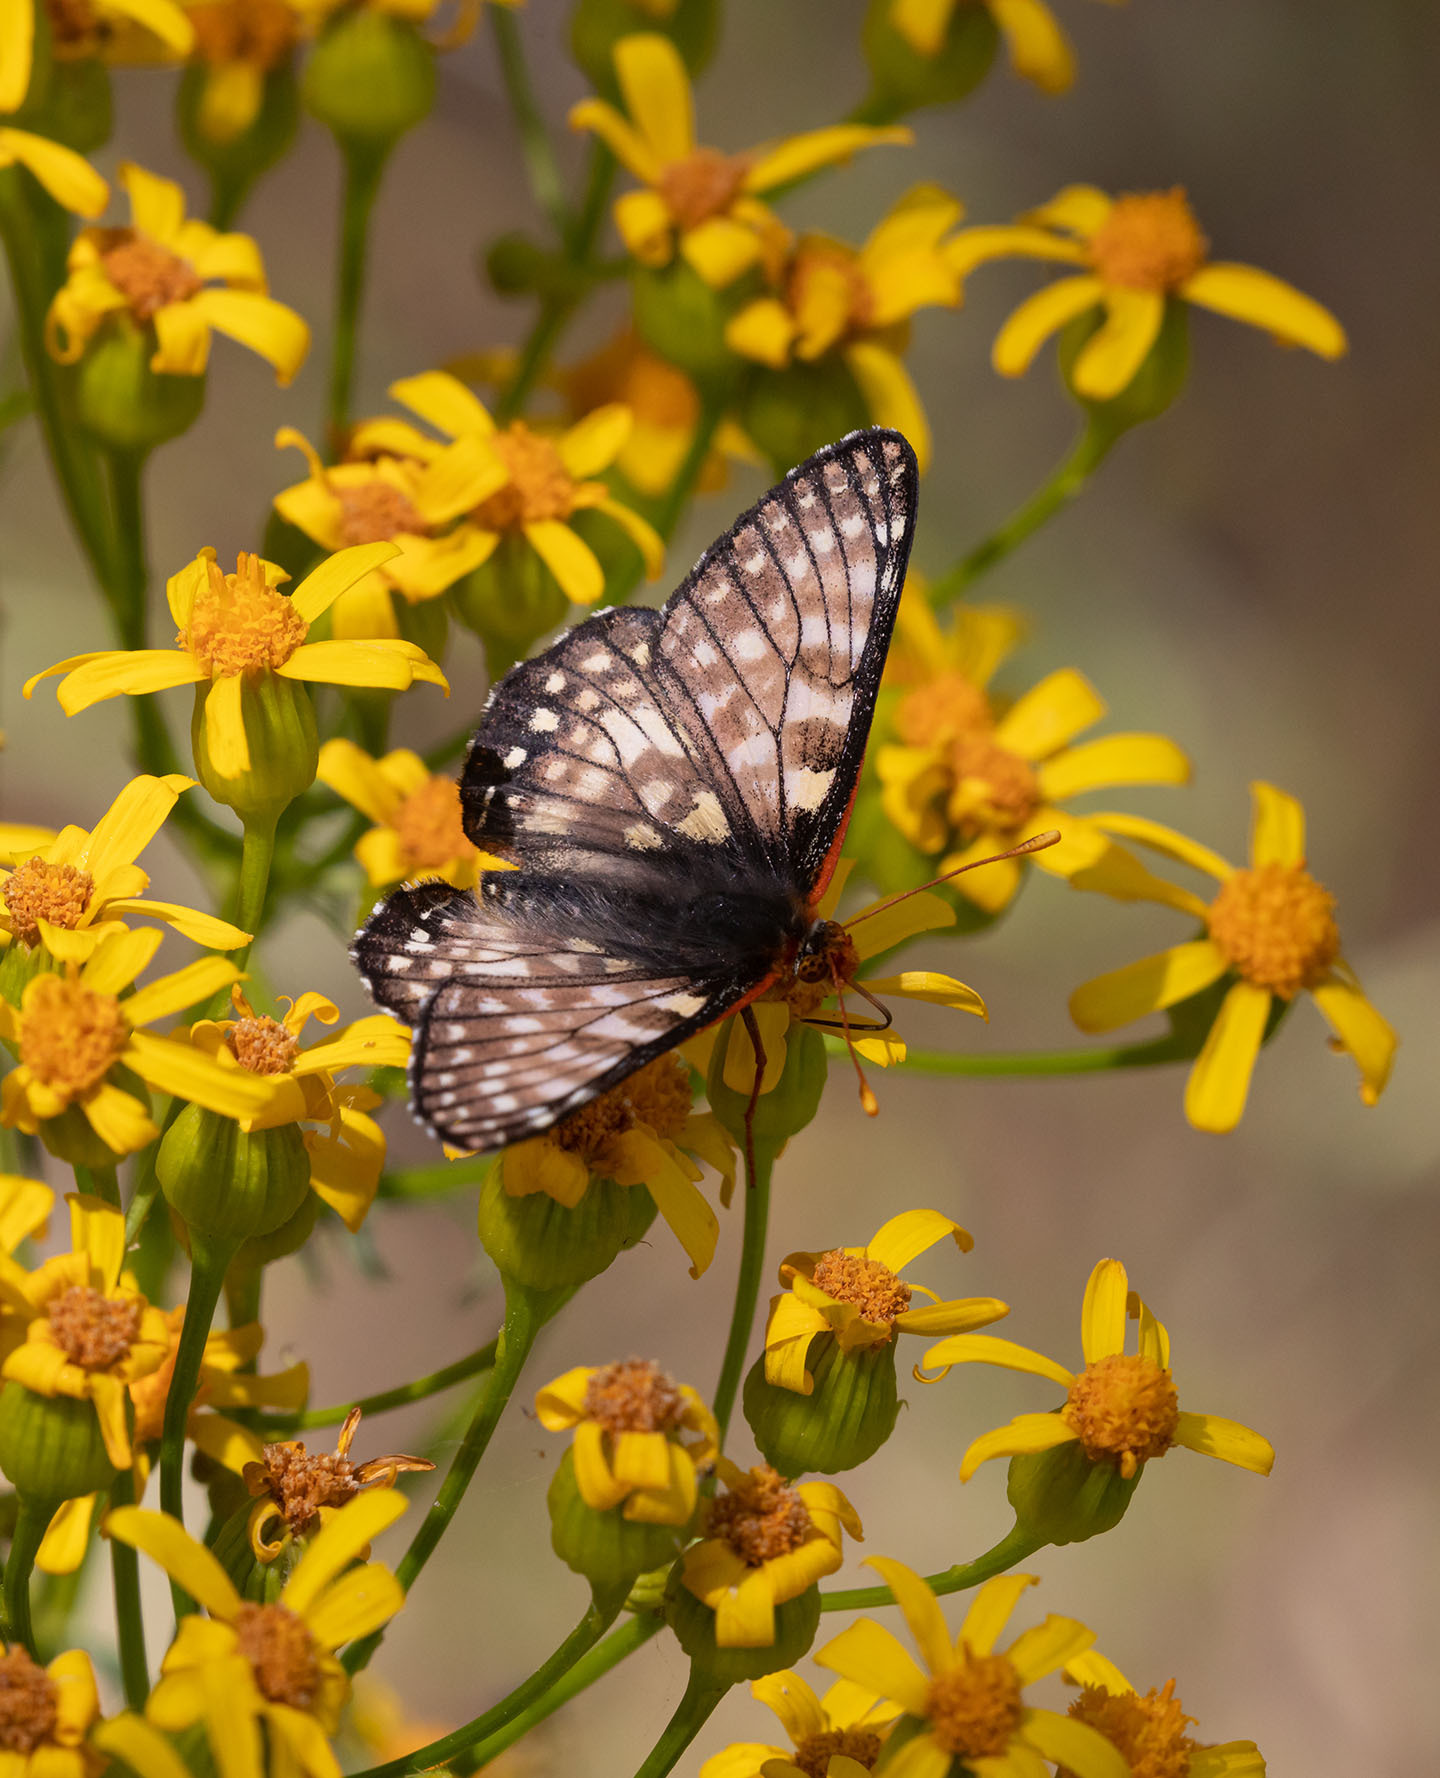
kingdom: Animalia
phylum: Arthropoda
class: Insecta
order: Lepidoptera
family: Nymphalidae
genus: Occidryas
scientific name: Occidryas chalcedona
